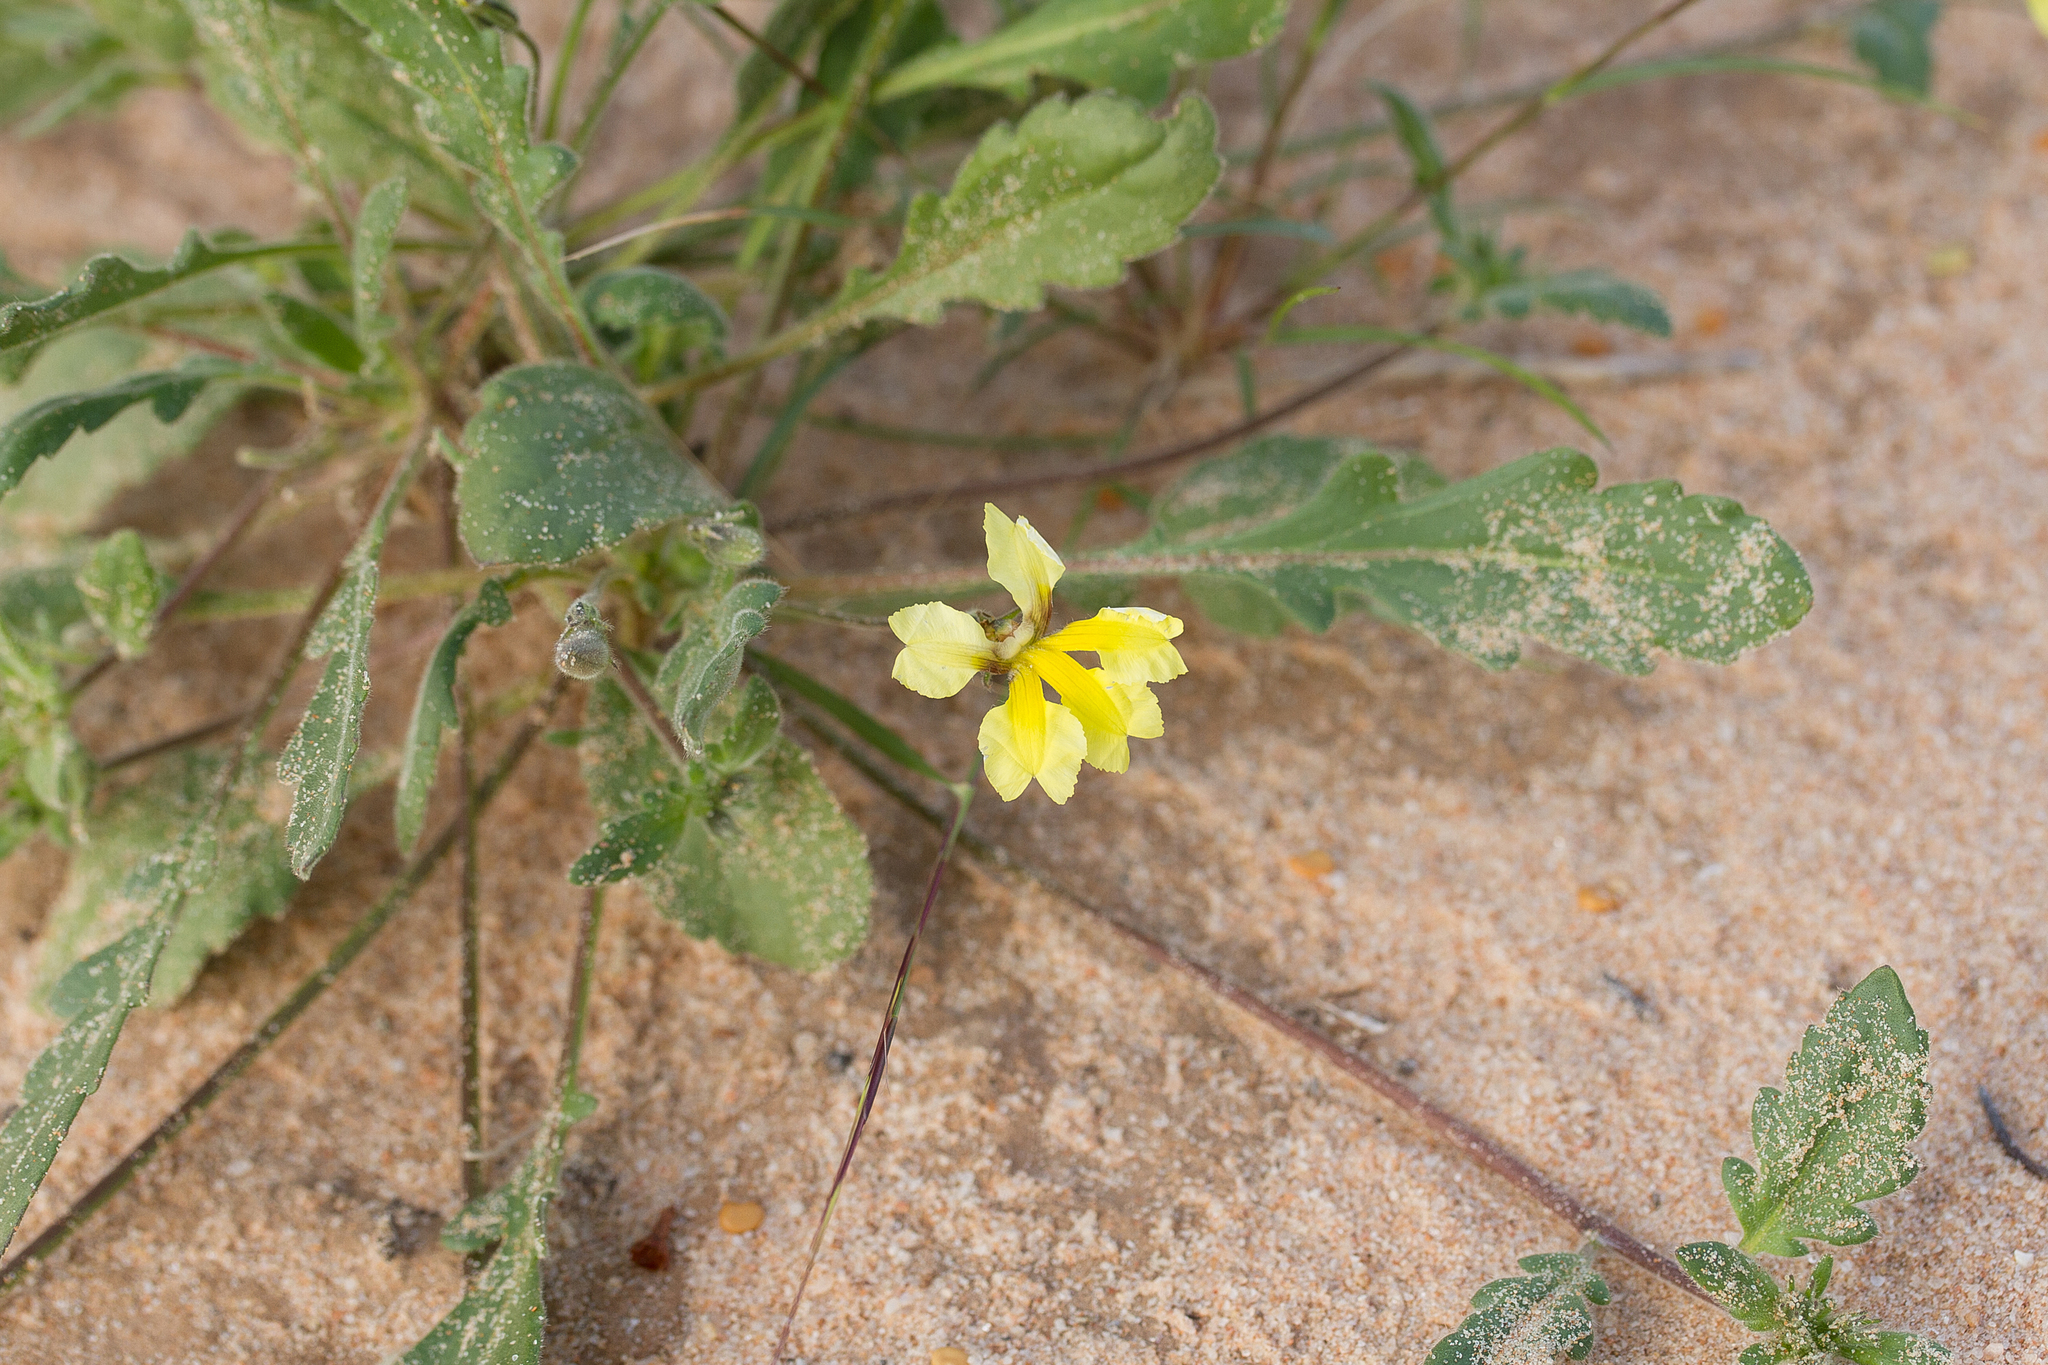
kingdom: Plantae
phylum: Tracheophyta
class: Magnoliopsida
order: Asterales
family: Goodeniaceae
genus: Goodenia
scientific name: Goodenia fascicularis
